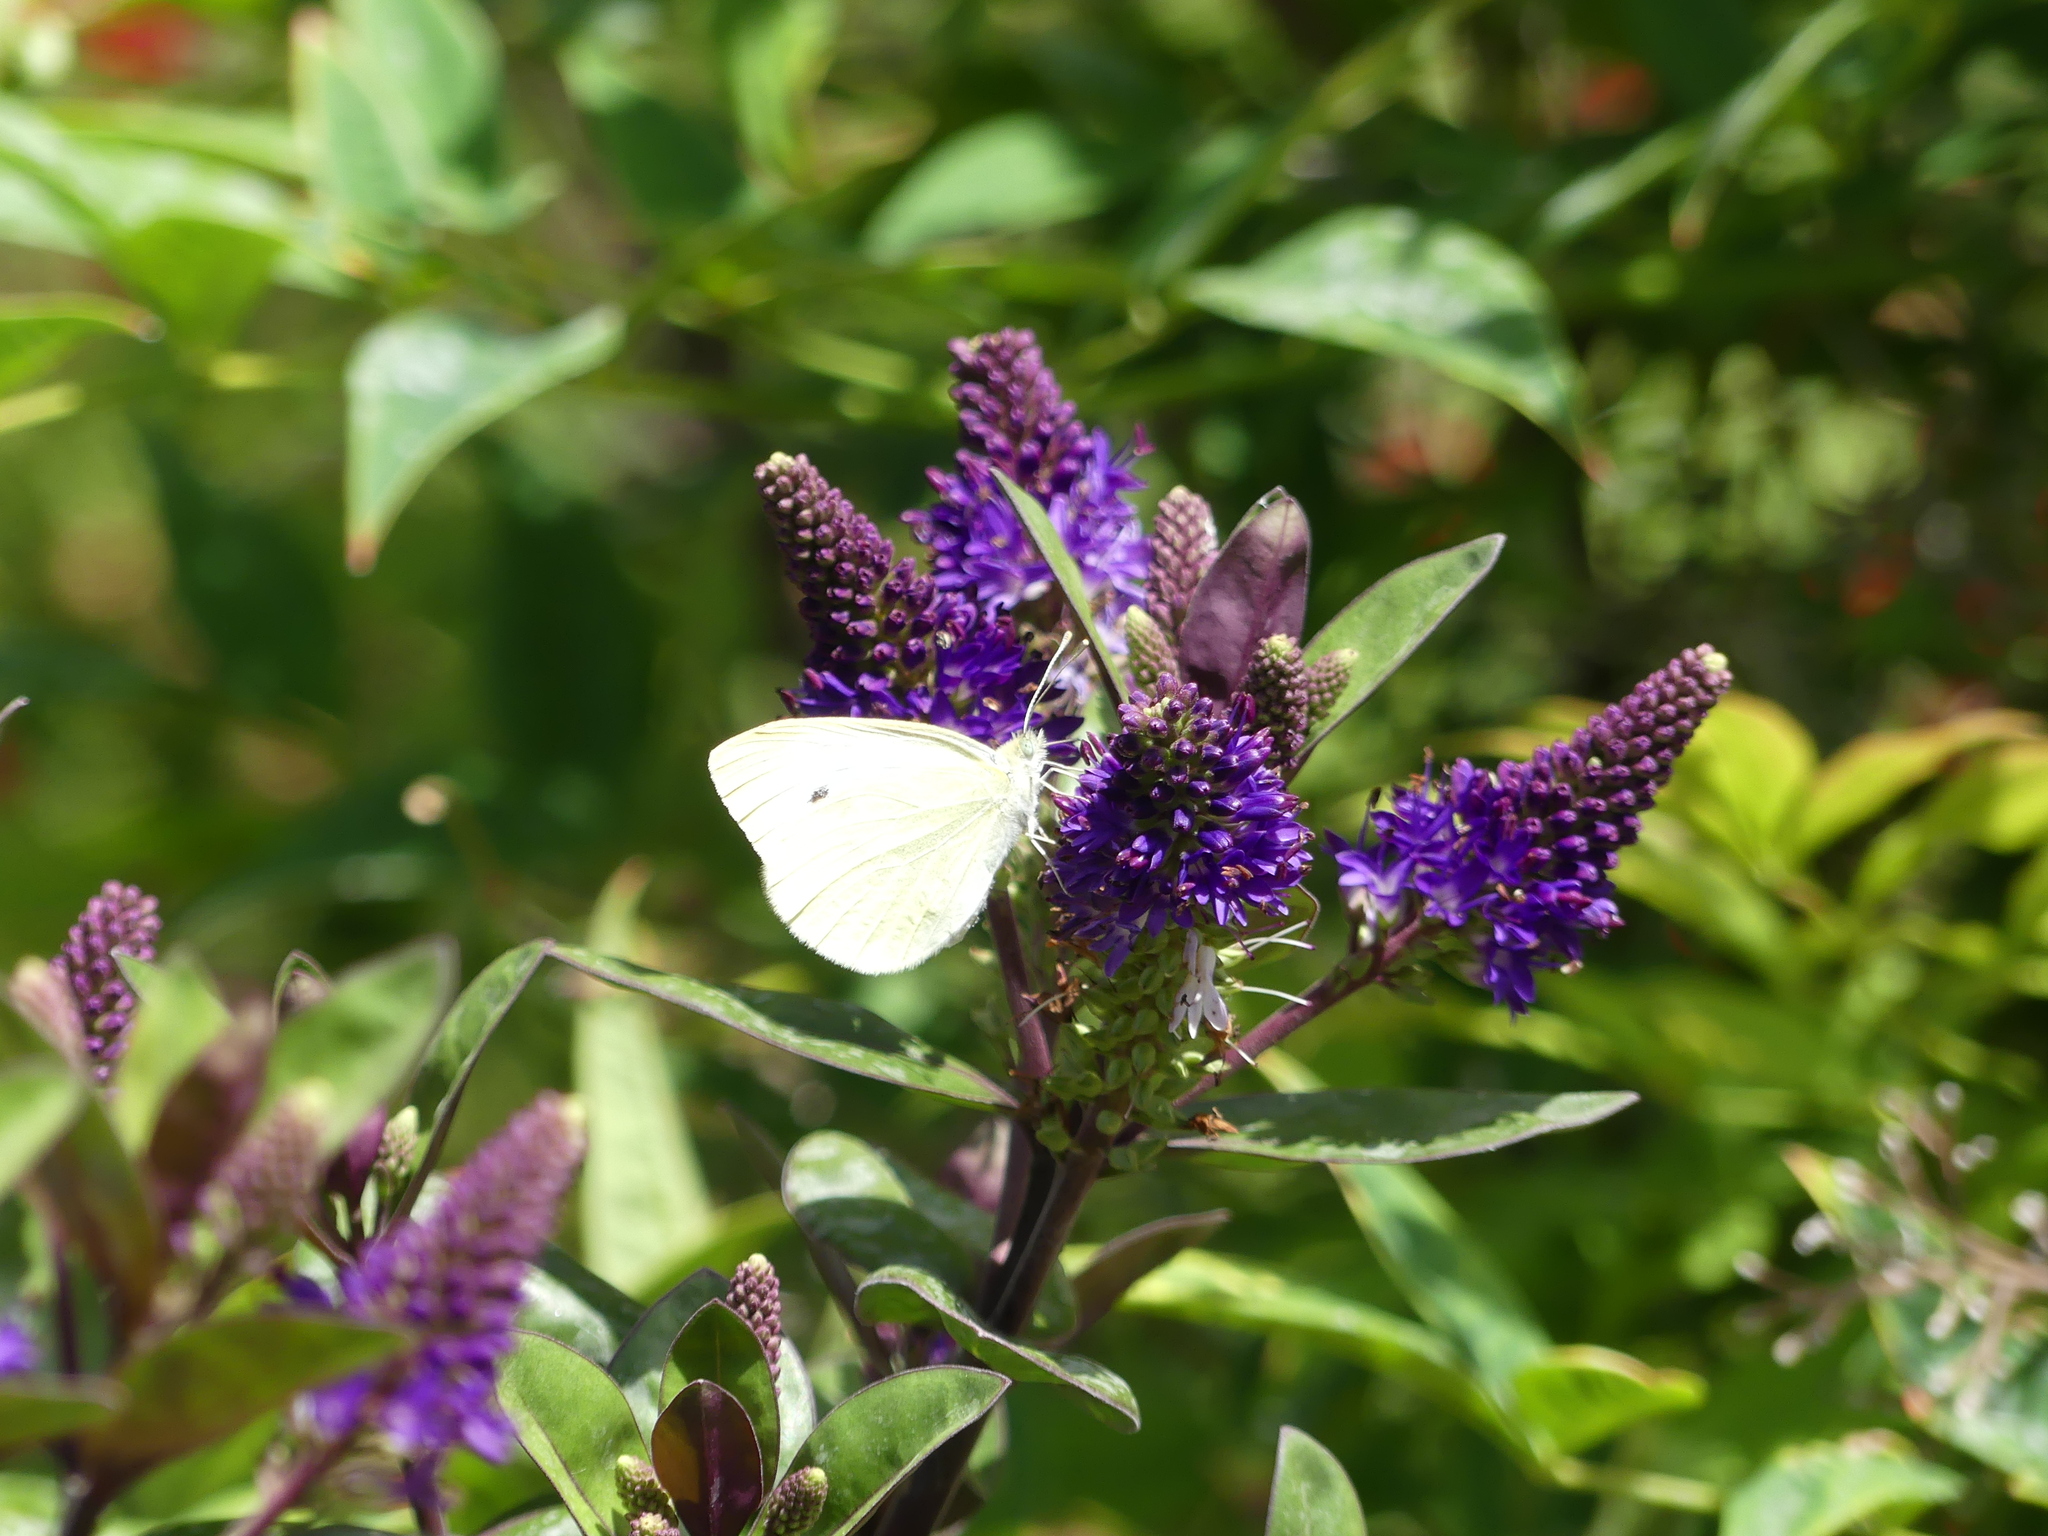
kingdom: Animalia
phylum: Arthropoda
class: Insecta
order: Lepidoptera
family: Pieridae
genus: Pieris
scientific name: Pieris rapae
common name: Small white
